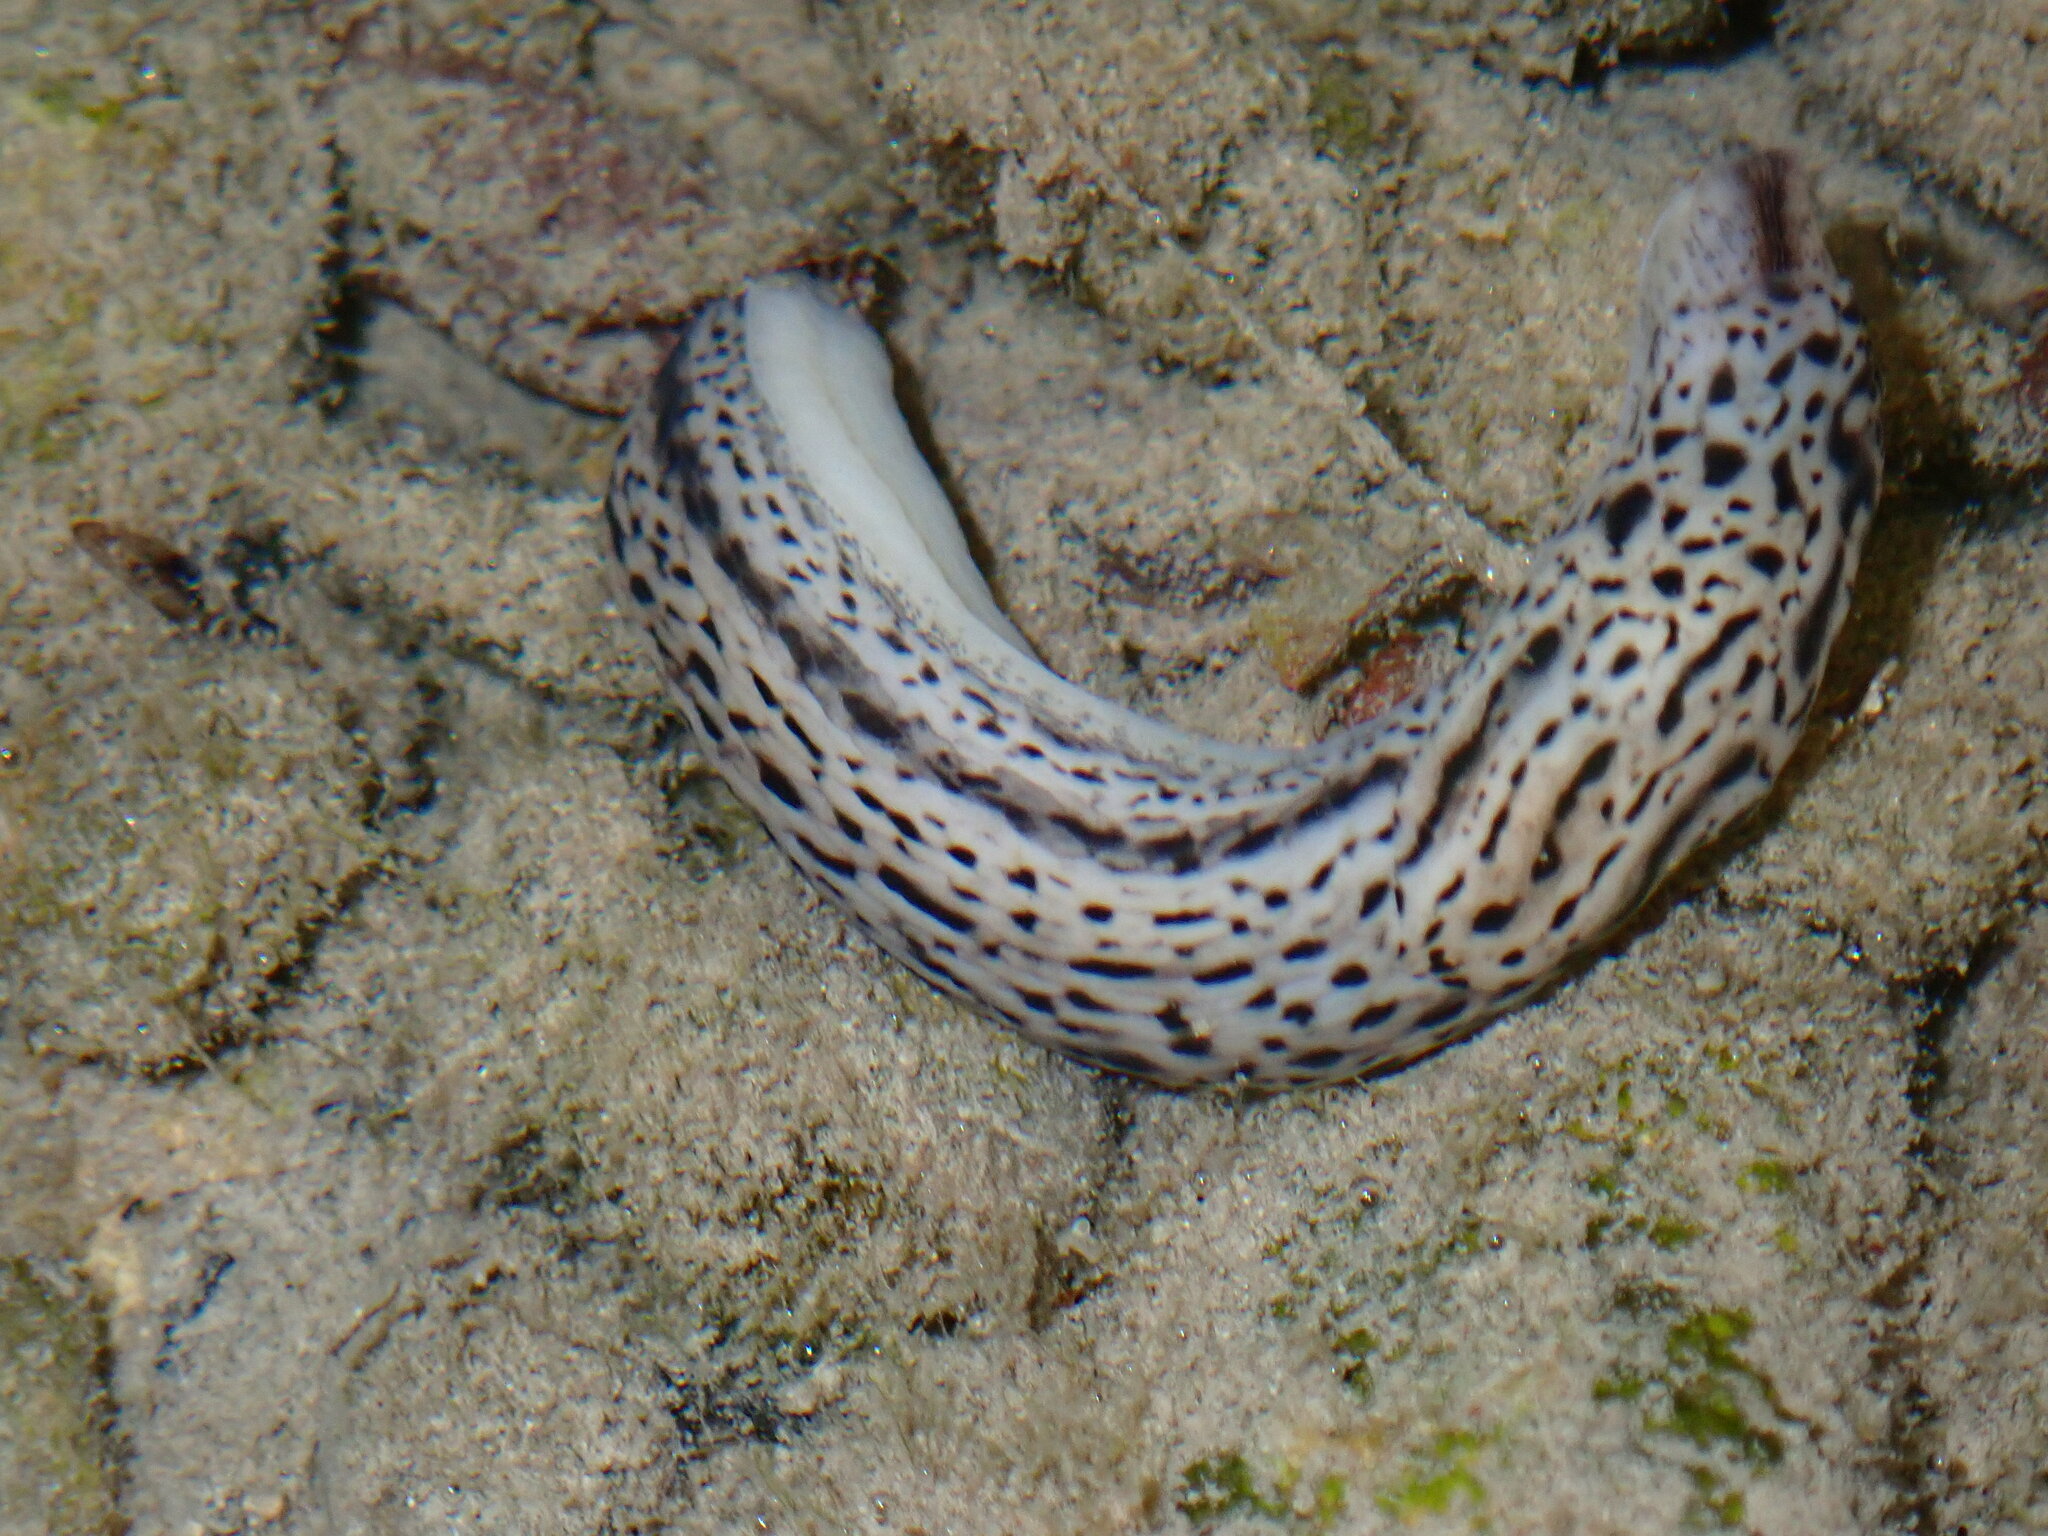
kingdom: Animalia
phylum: Mollusca
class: Gastropoda
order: Stylommatophora
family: Limacidae
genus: Limax
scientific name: Limax maximus
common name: Great grey slug
